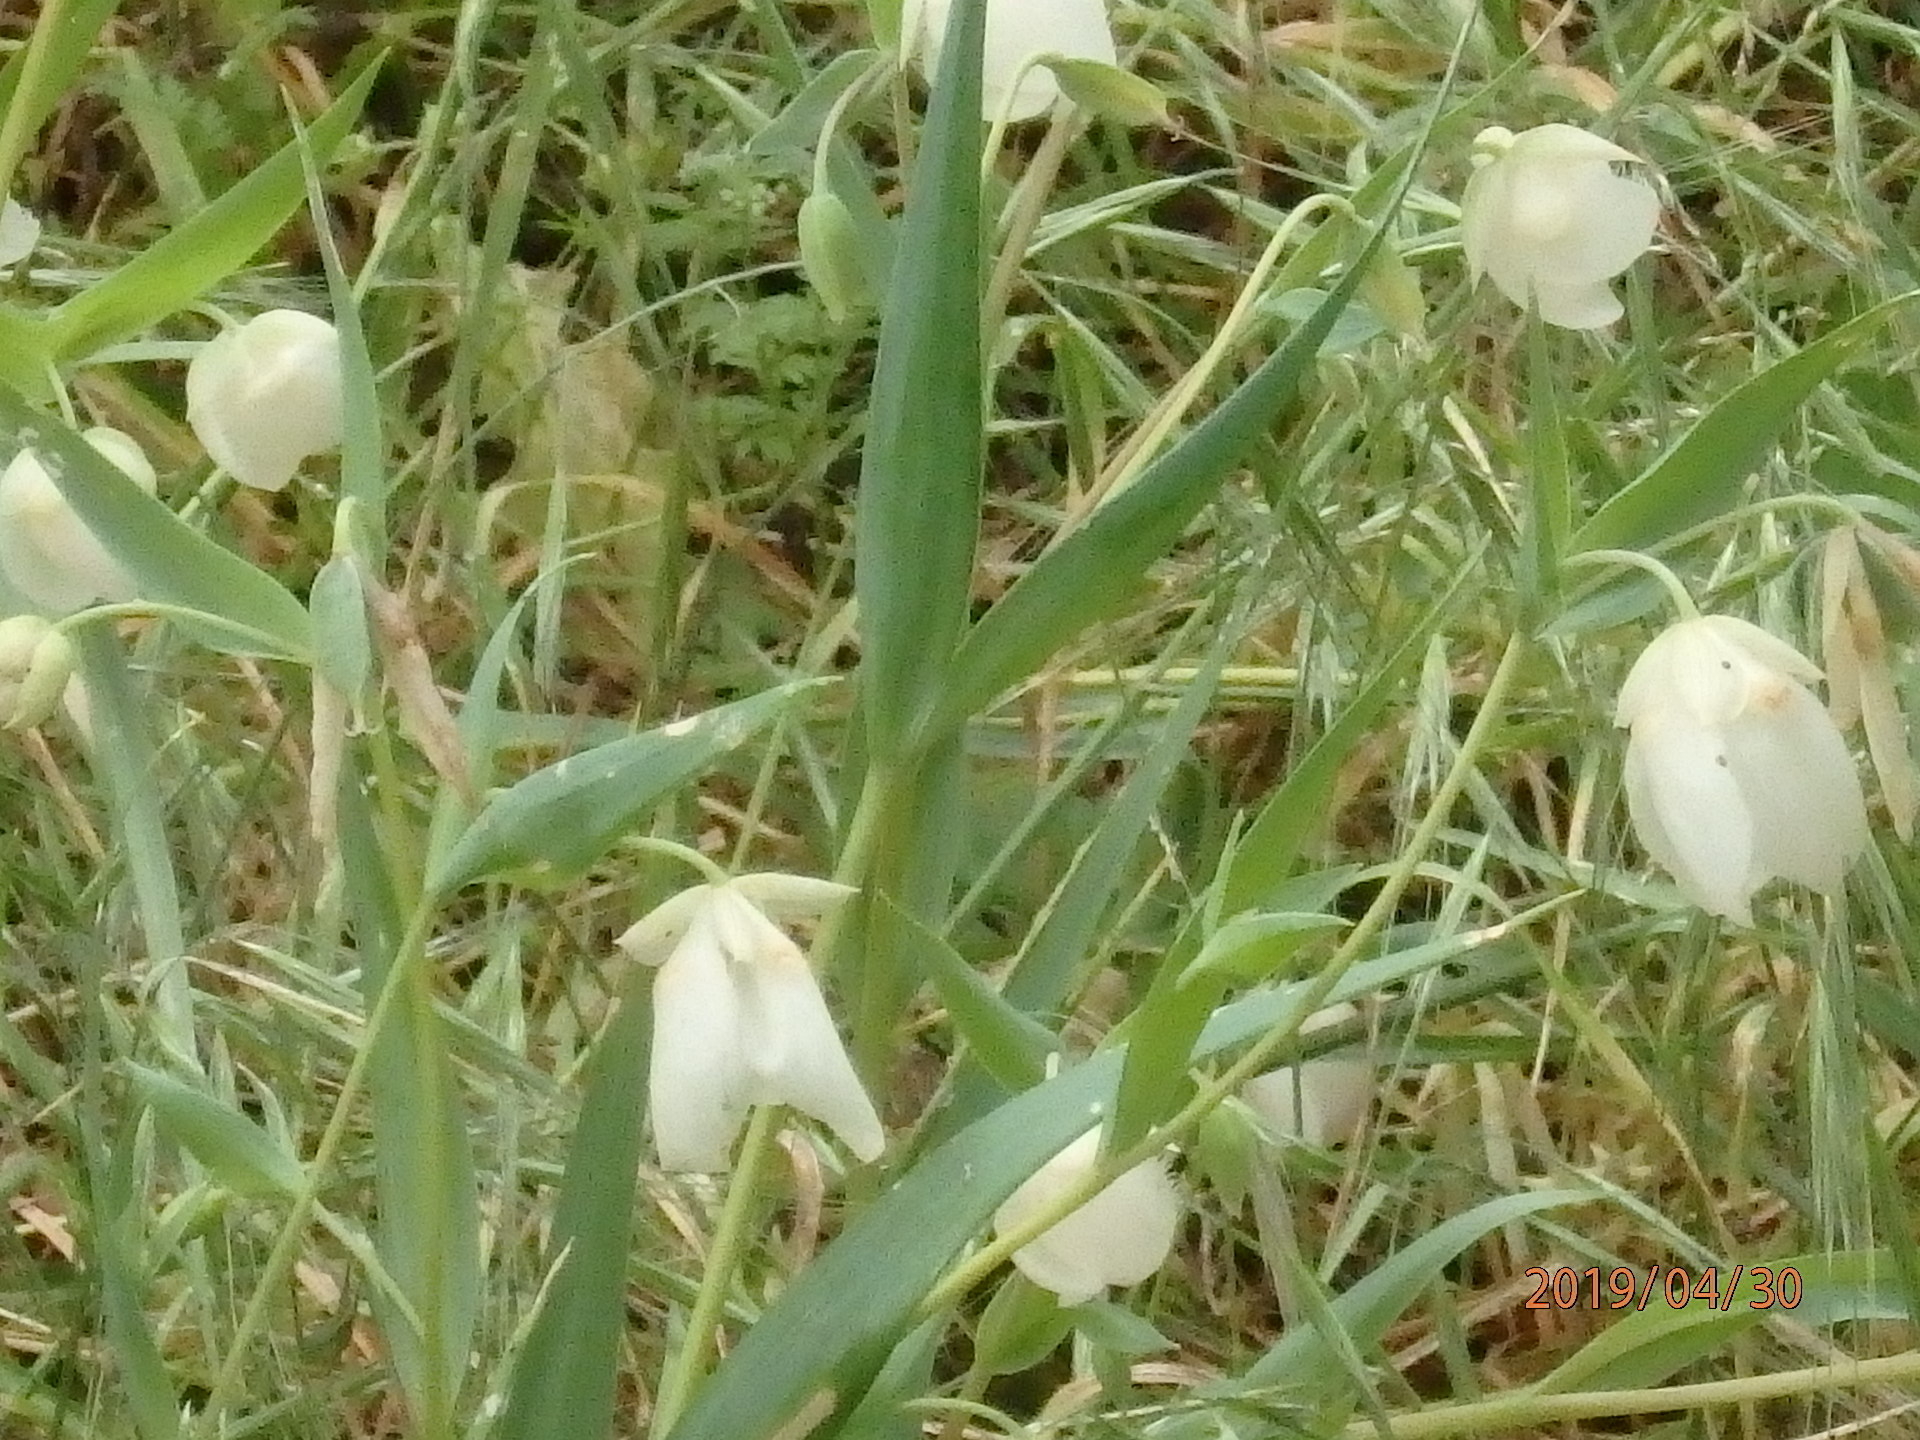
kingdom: Plantae
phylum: Tracheophyta
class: Liliopsida
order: Liliales
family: Liliaceae
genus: Calochortus
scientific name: Calochortus albus
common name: Fairy-lantern
